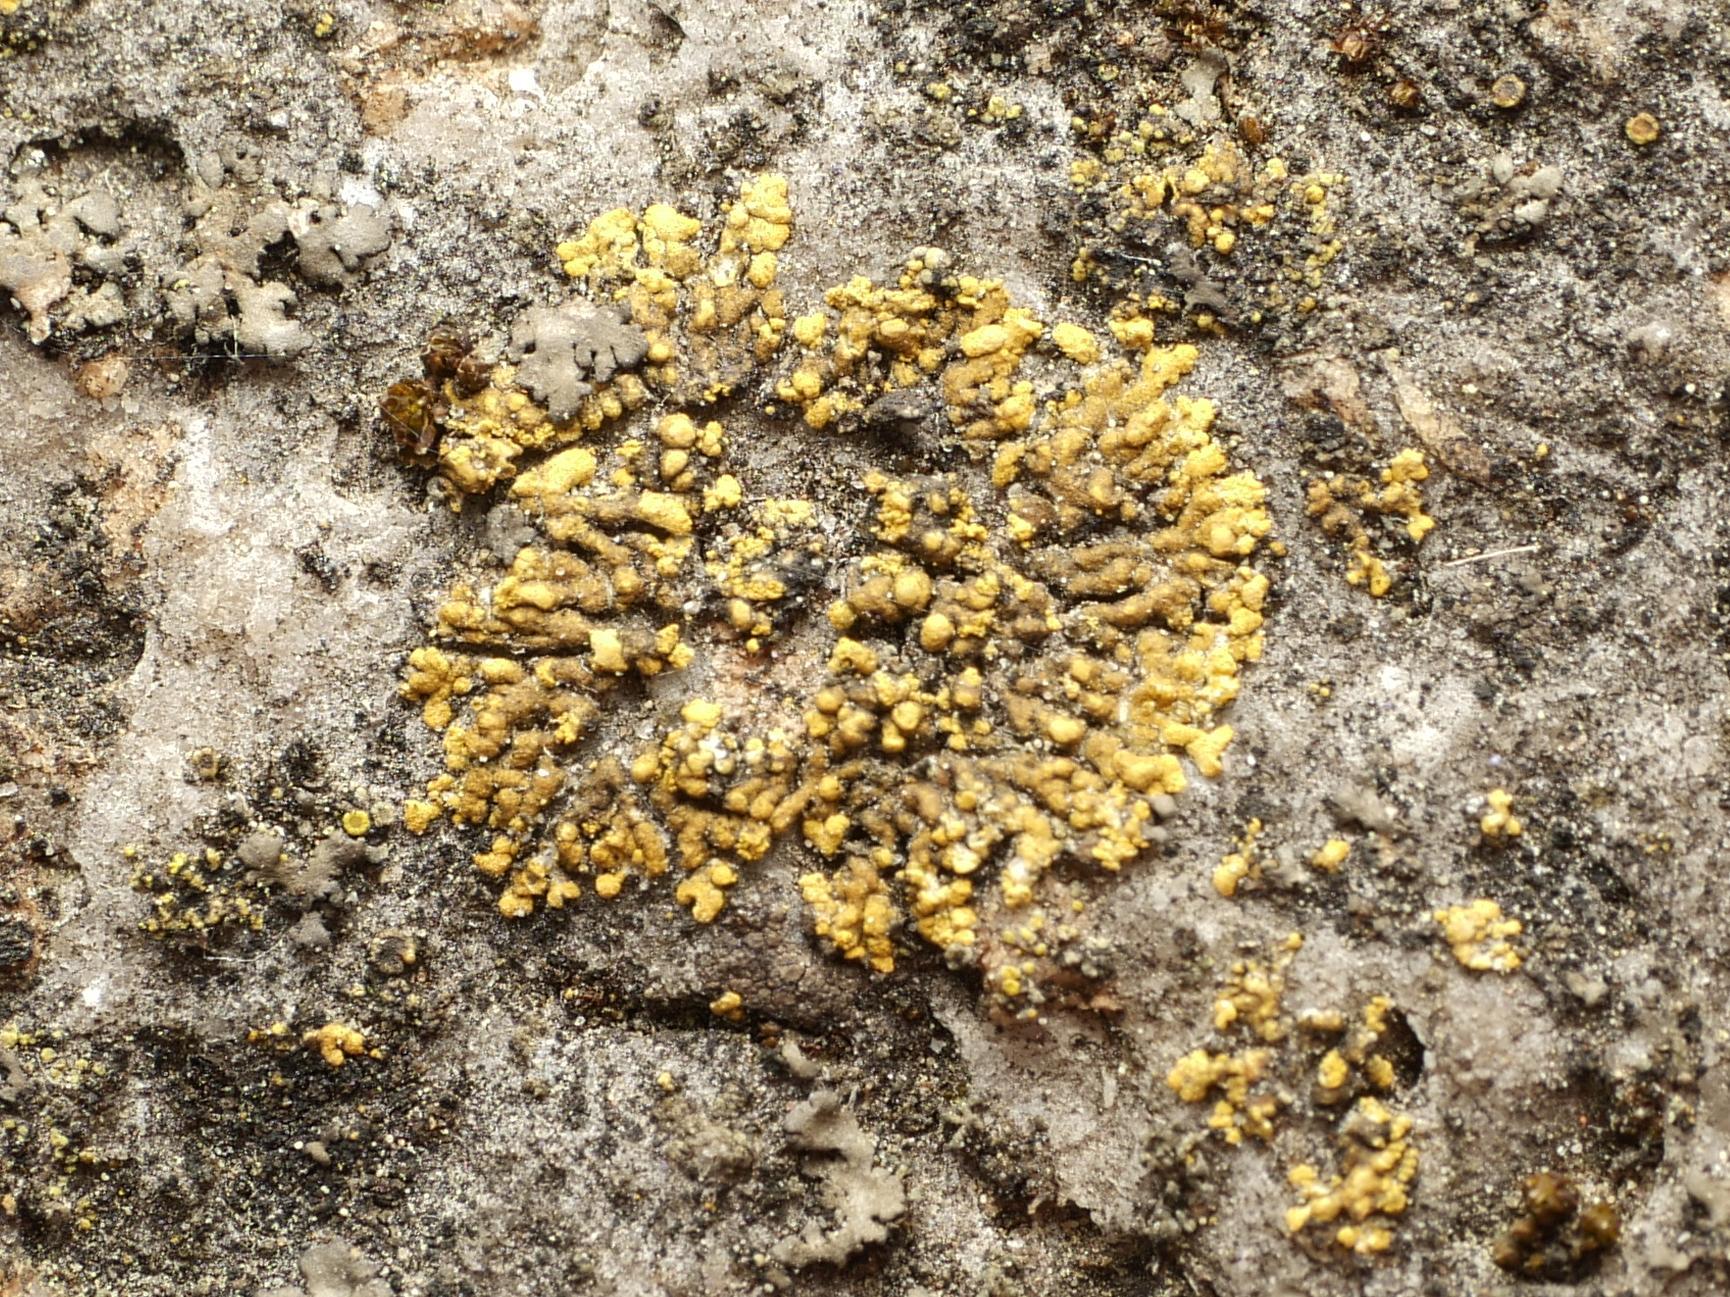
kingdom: Fungi
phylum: Ascomycota
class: Lecanoromycetes
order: Teloschistales
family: Teloschistaceae
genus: Calogaya
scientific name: Calogaya decipiens
